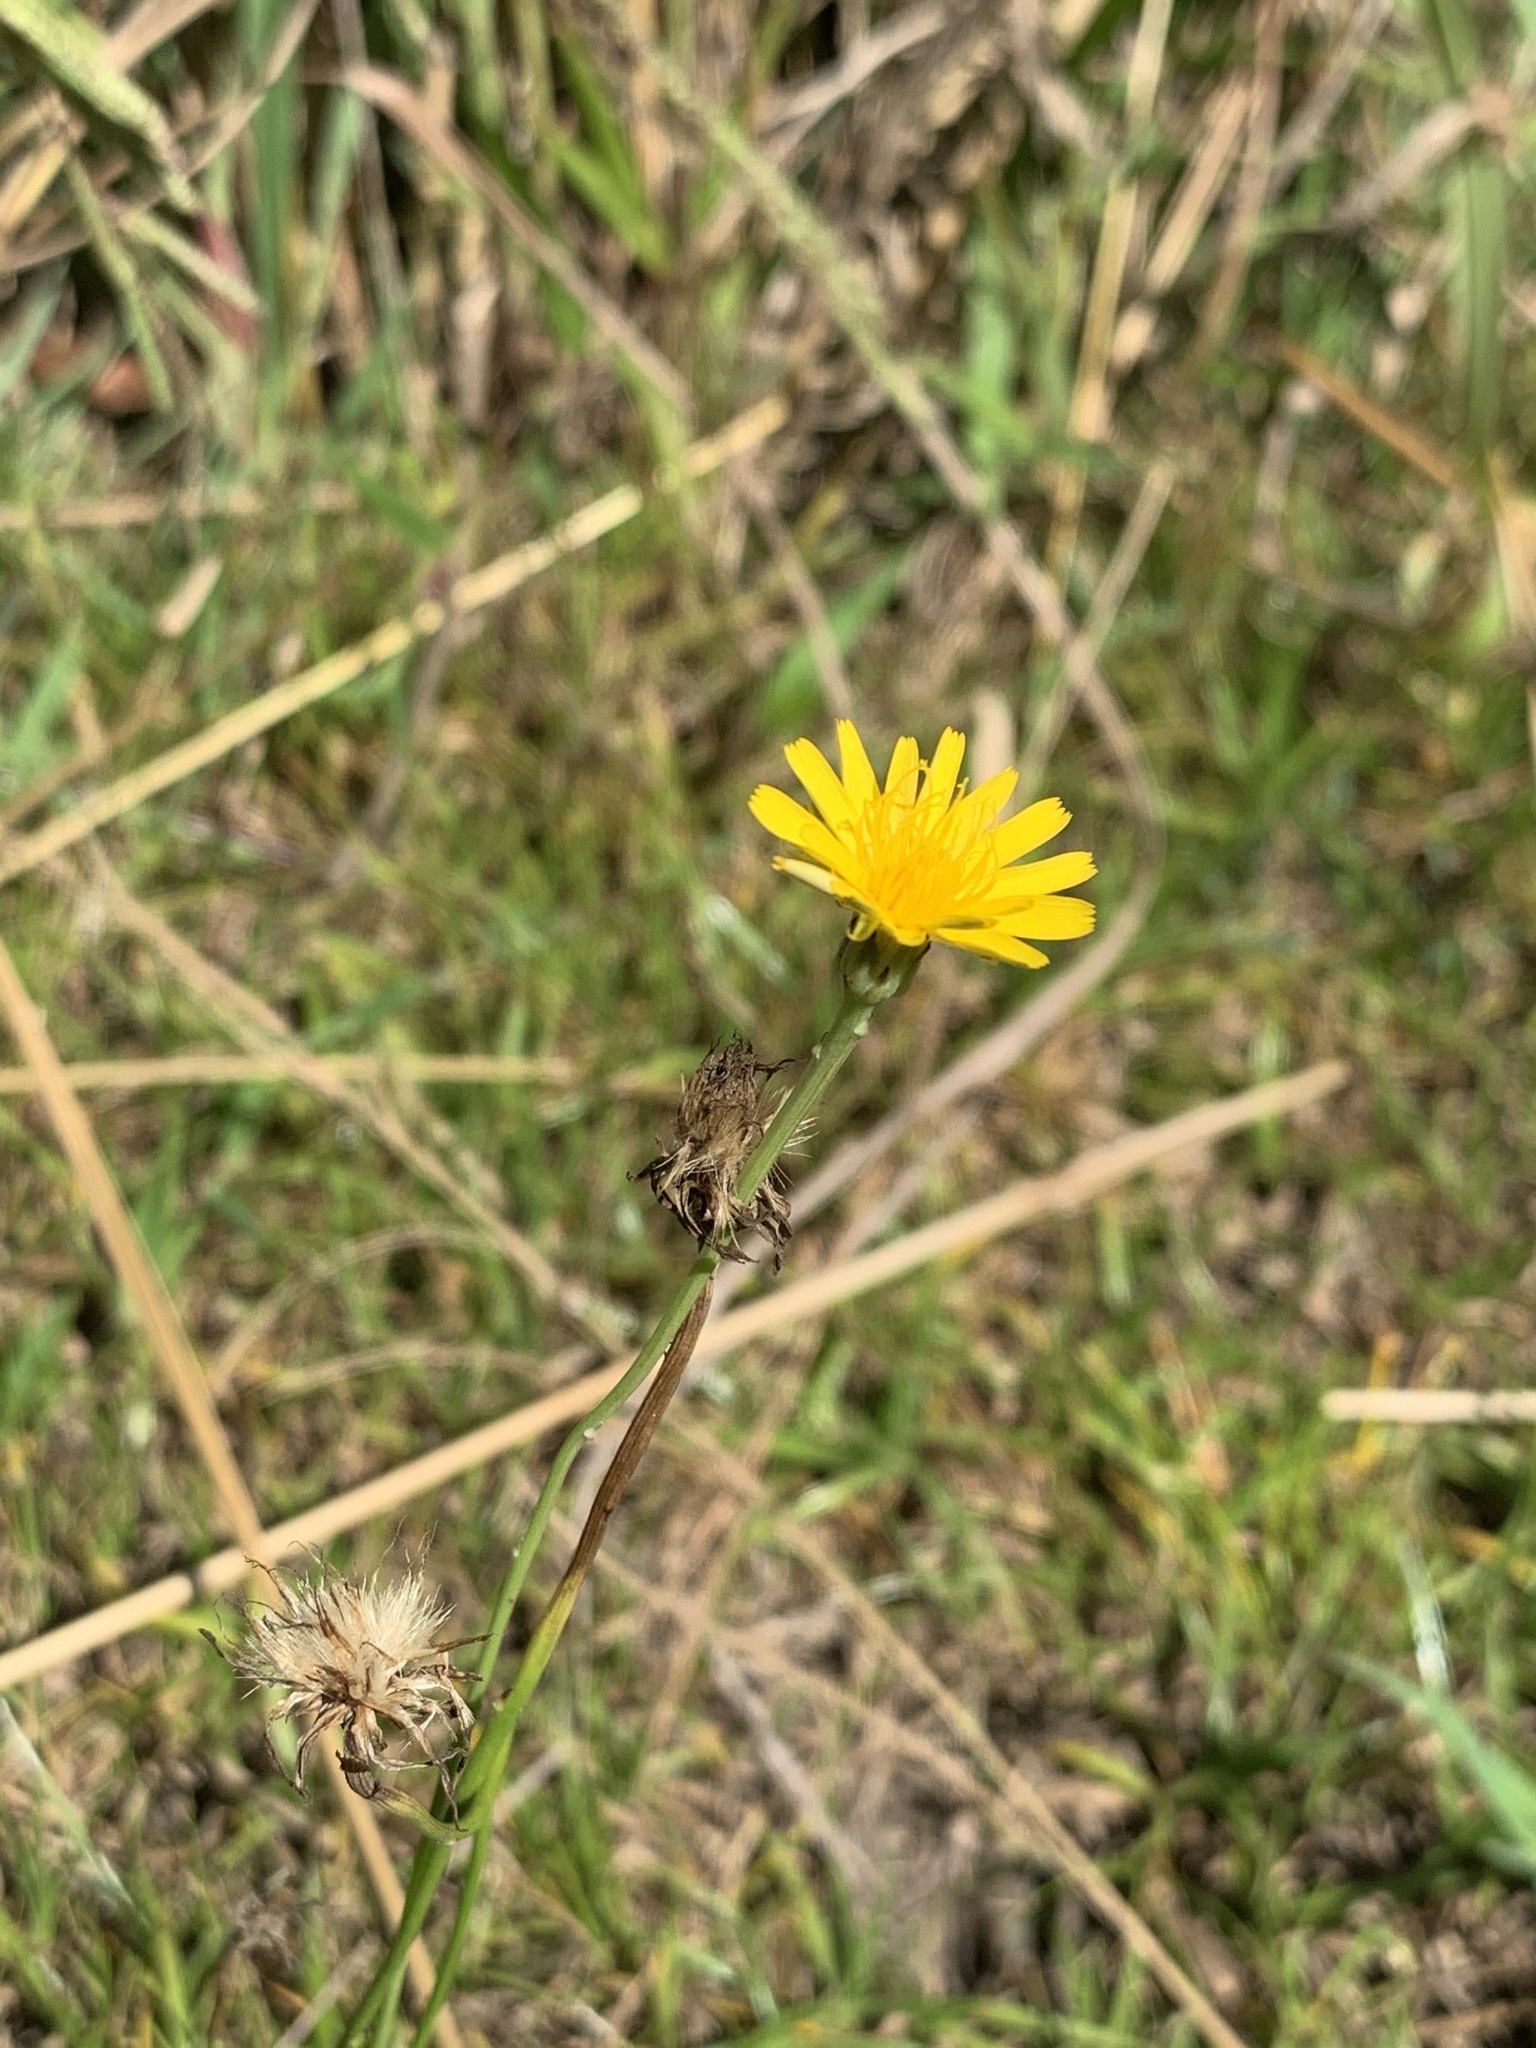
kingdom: Plantae
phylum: Tracheophyta
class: Magnoliopsida
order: Asterales
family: Asteraceae
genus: Hypochaeris
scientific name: Hypochaeris radicata
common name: Flatweed
